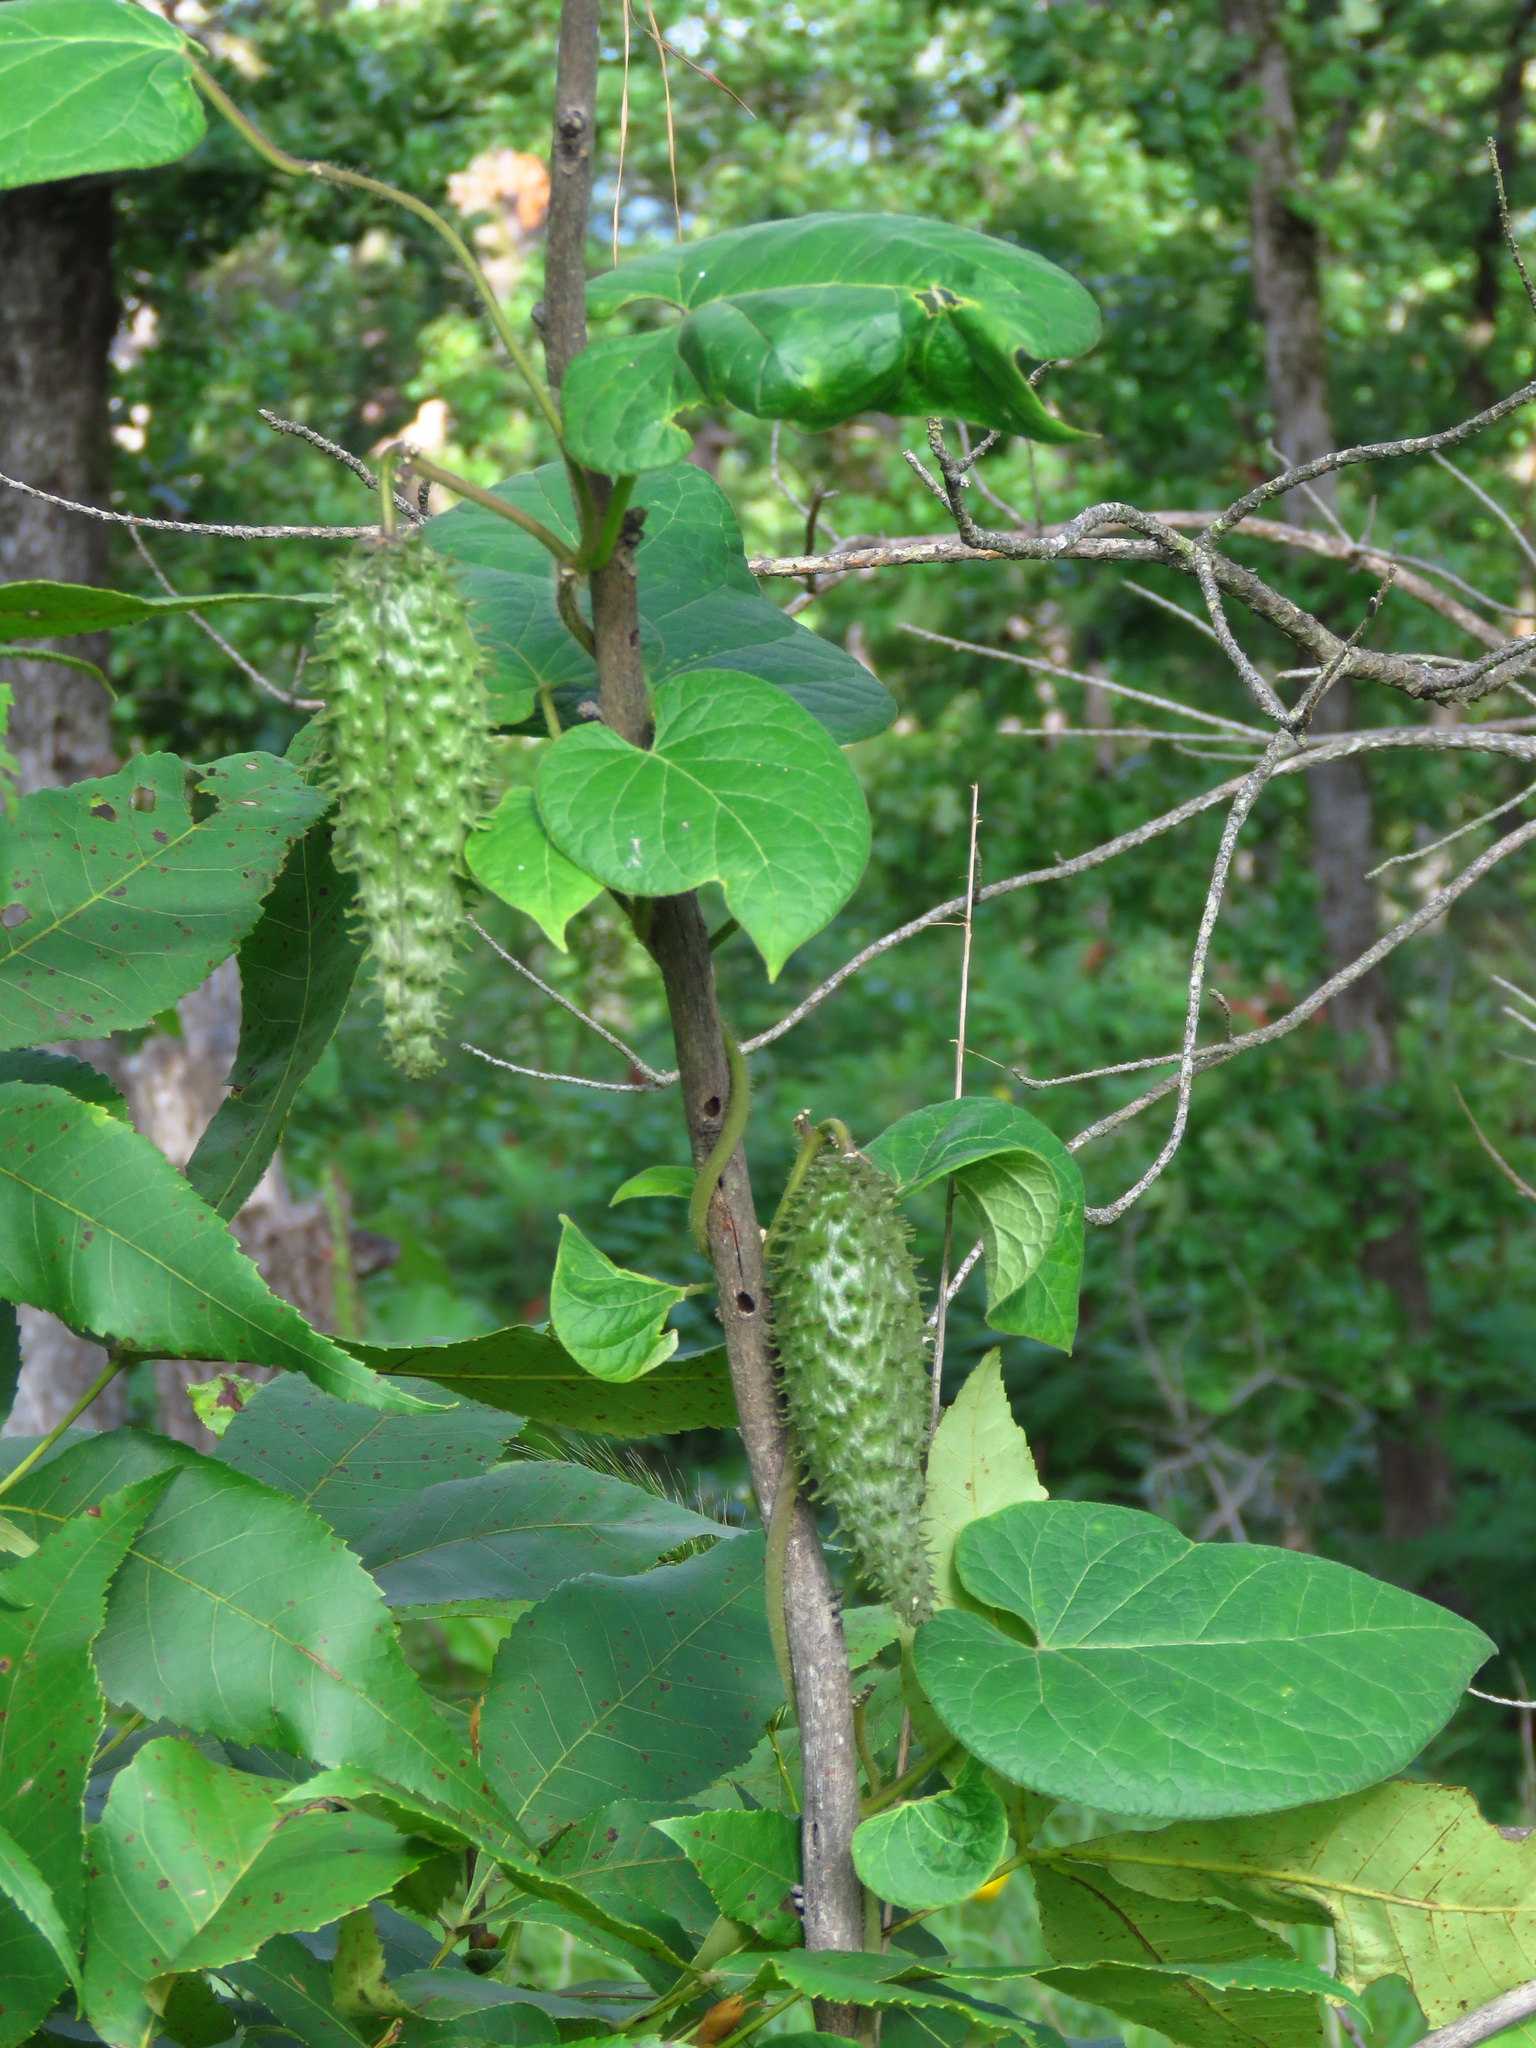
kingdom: Plantae
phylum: Tracheophyta
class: Magnoliopsida
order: Gentianales
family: Apocynaceae
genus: Matelea
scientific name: Matelea hirtelliflora
